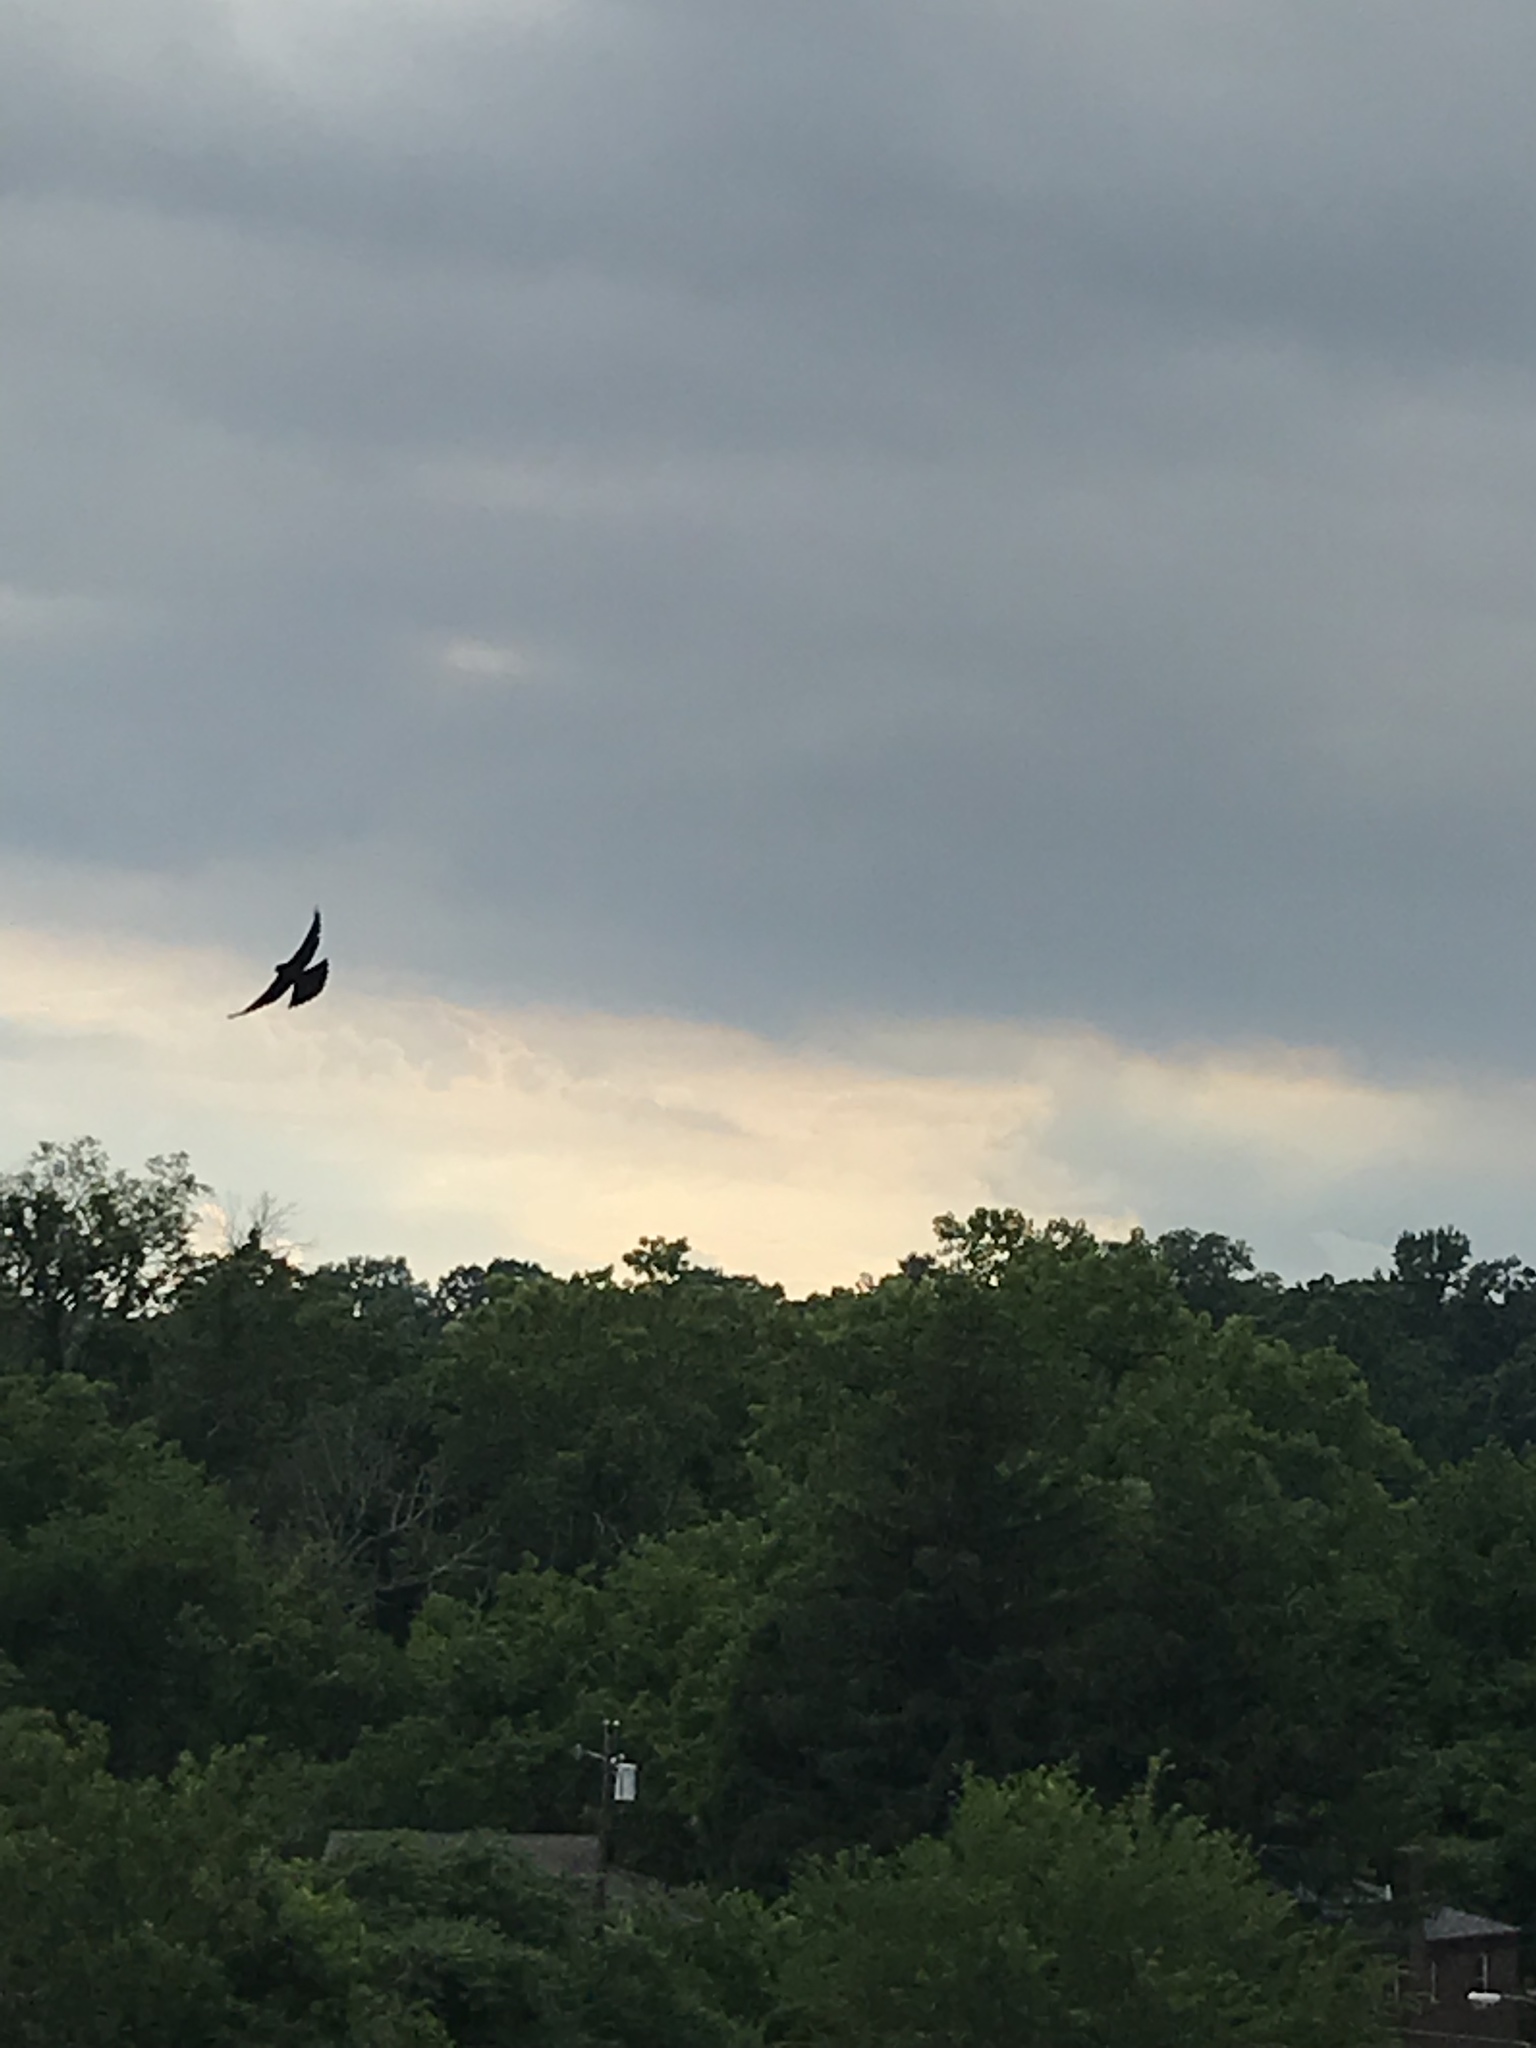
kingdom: Animalia
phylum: Chordata
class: Aves
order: Passeriformes
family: Icteridae
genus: Agelaius
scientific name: Agelaius phoeniceus
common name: Red-winged blackbird
